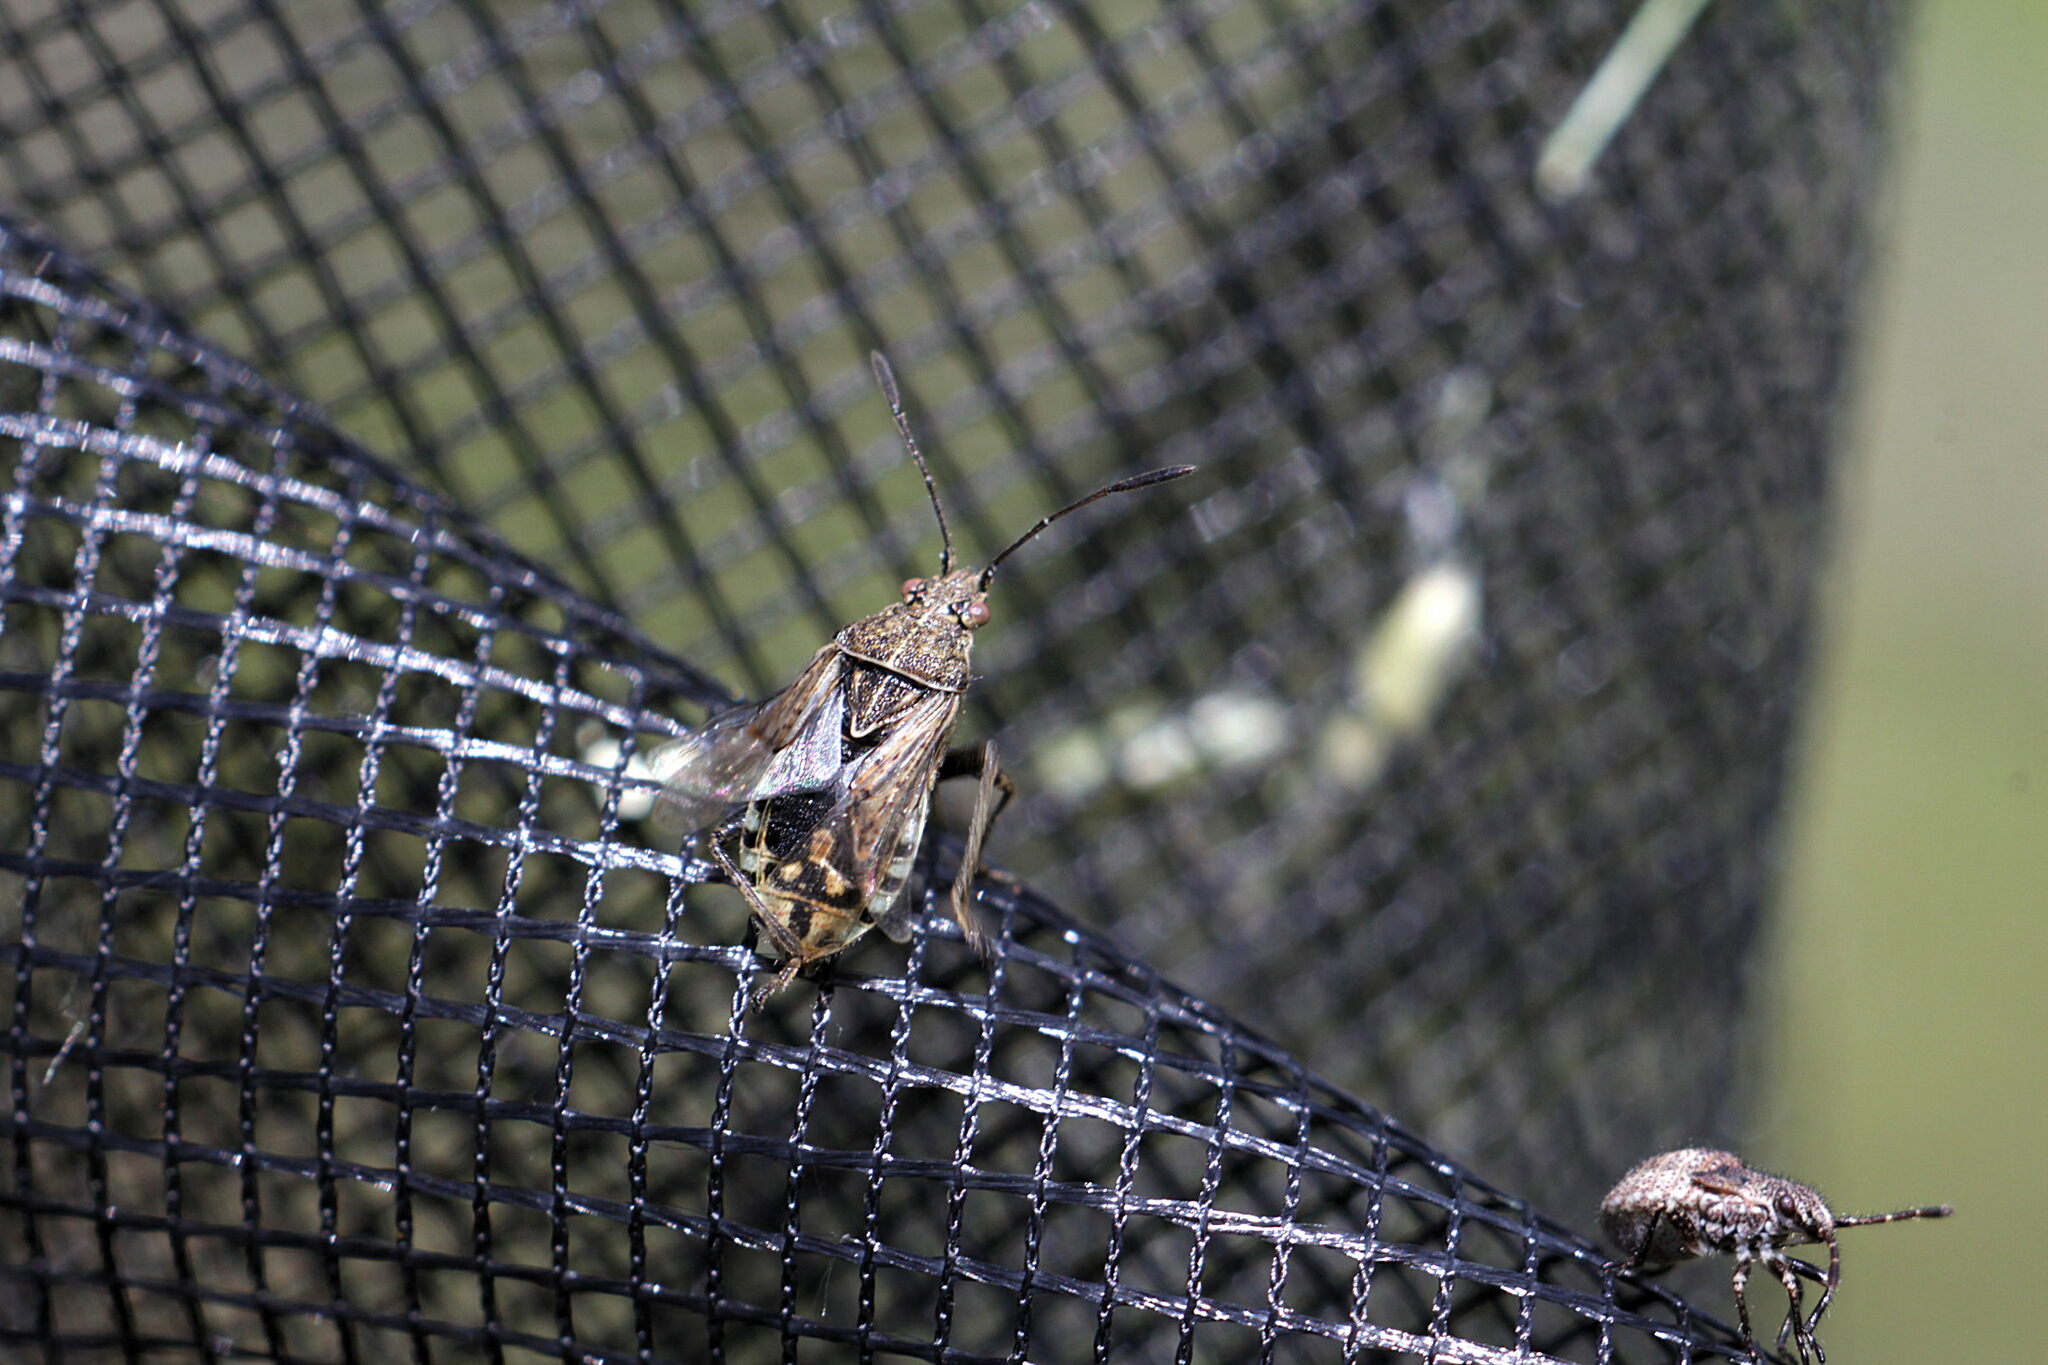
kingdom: Animalia
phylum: Arthropoda
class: Insecta
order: Hemiptera
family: Rhopalidae
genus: Stictopleurus
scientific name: Stictopleurus punctatonervosus
